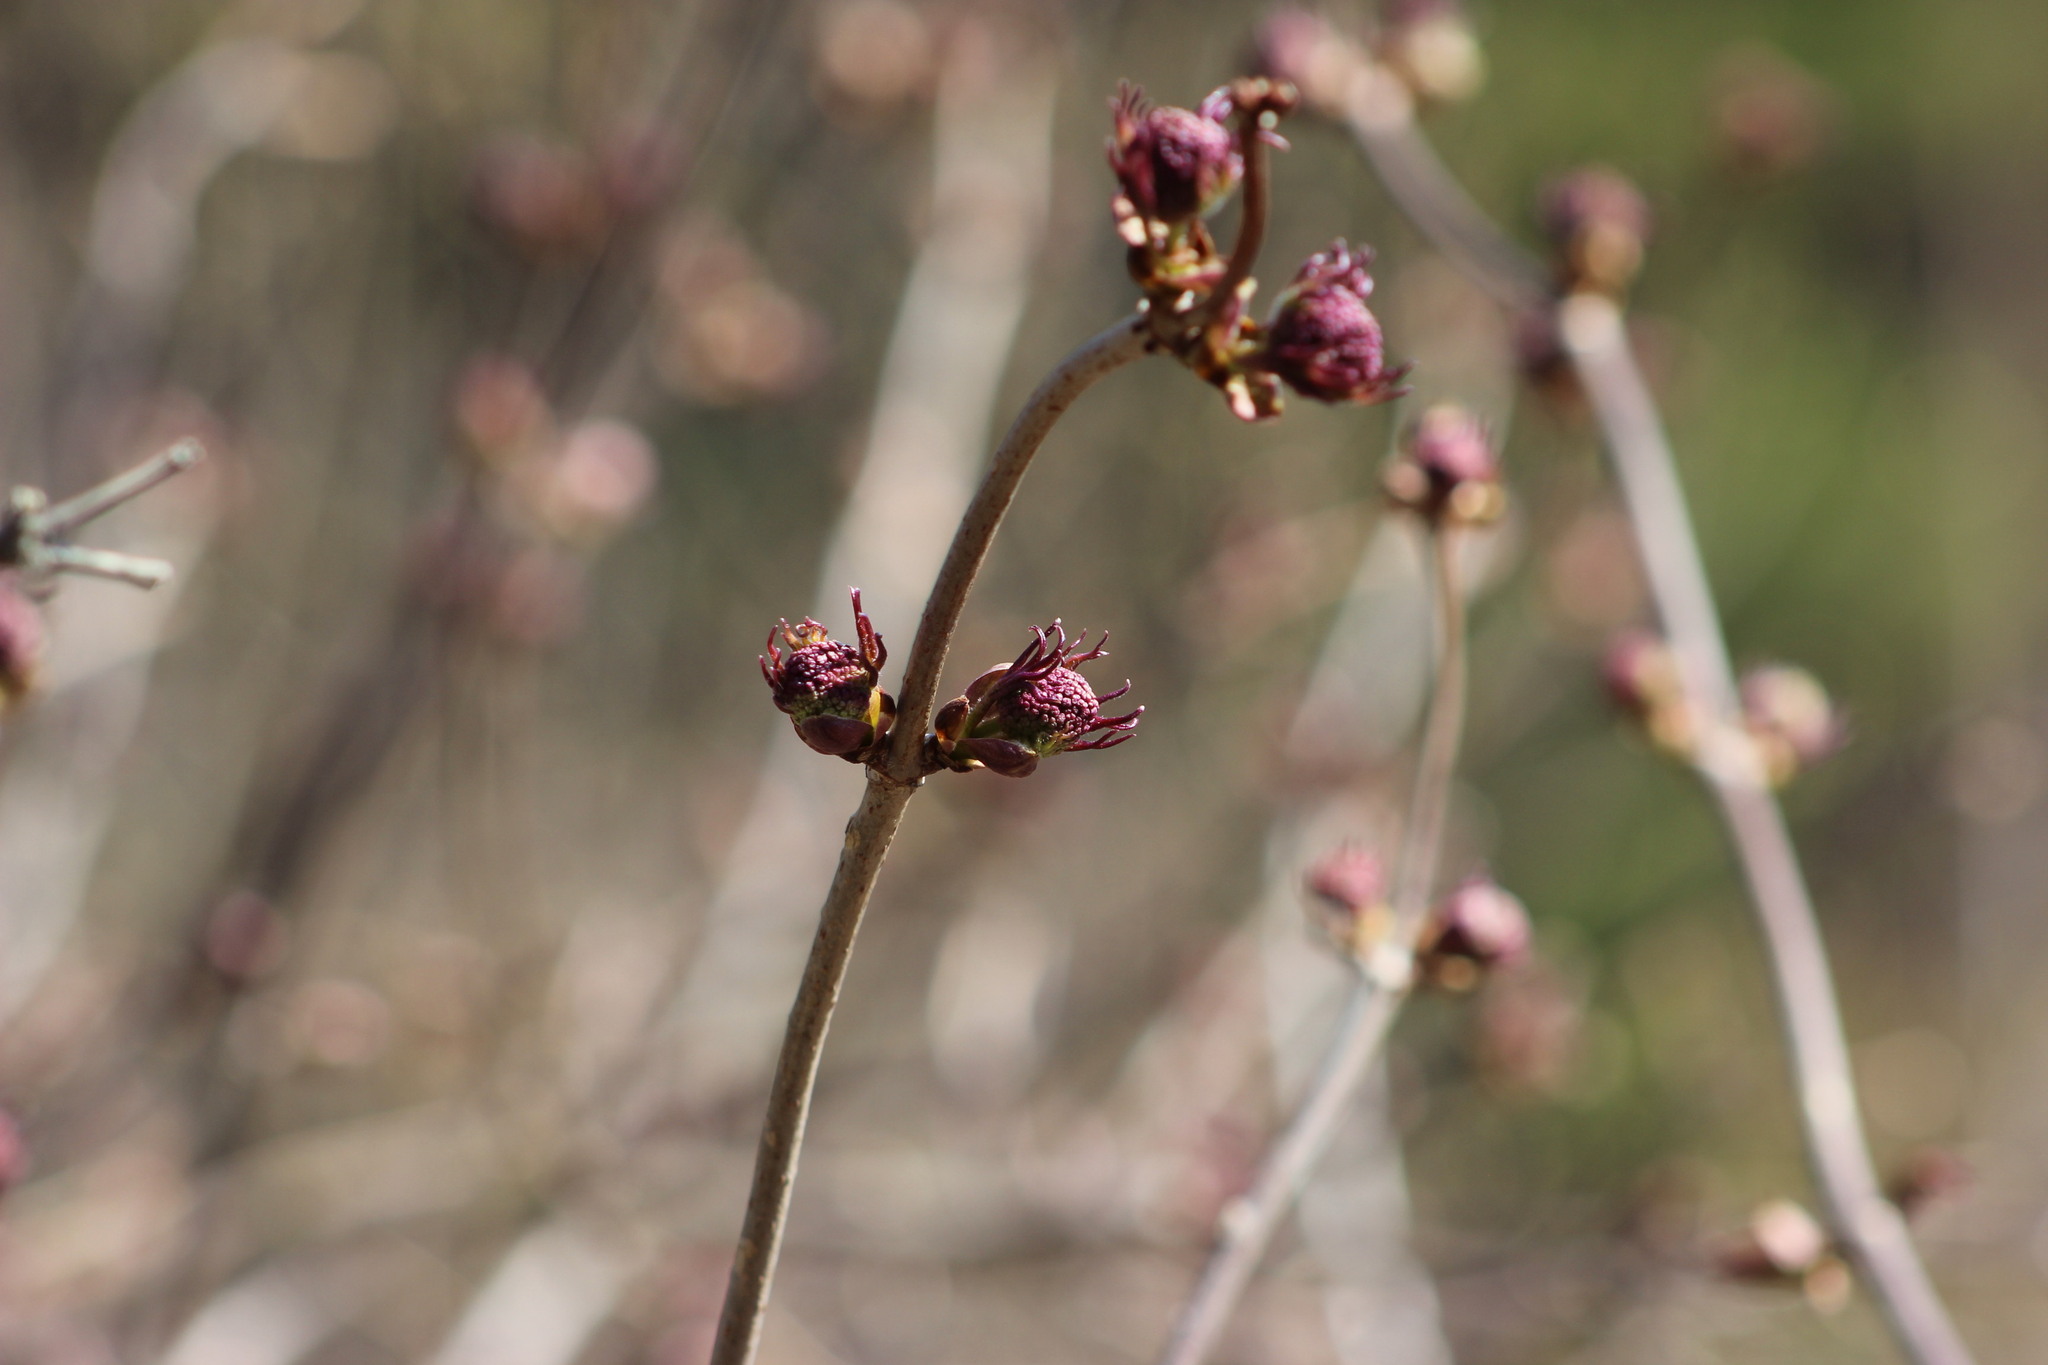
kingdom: Plantae
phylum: Tracheophyta
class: Magnoliopsida
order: Dipsacales
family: Viburnaceae
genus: Sambucus
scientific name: Sambucus sibirica
